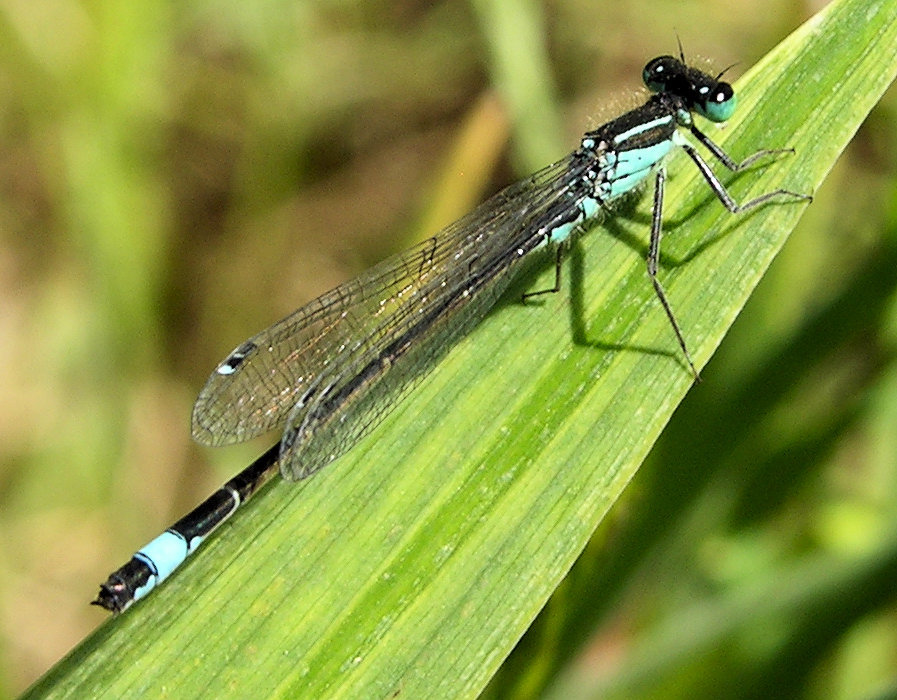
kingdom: Animalia
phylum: Arthropoda
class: Insecta
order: Odonata
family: Coenagrionidae
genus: Ischnura
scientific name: Ischnura elegans
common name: Blue-tailed damselfly
